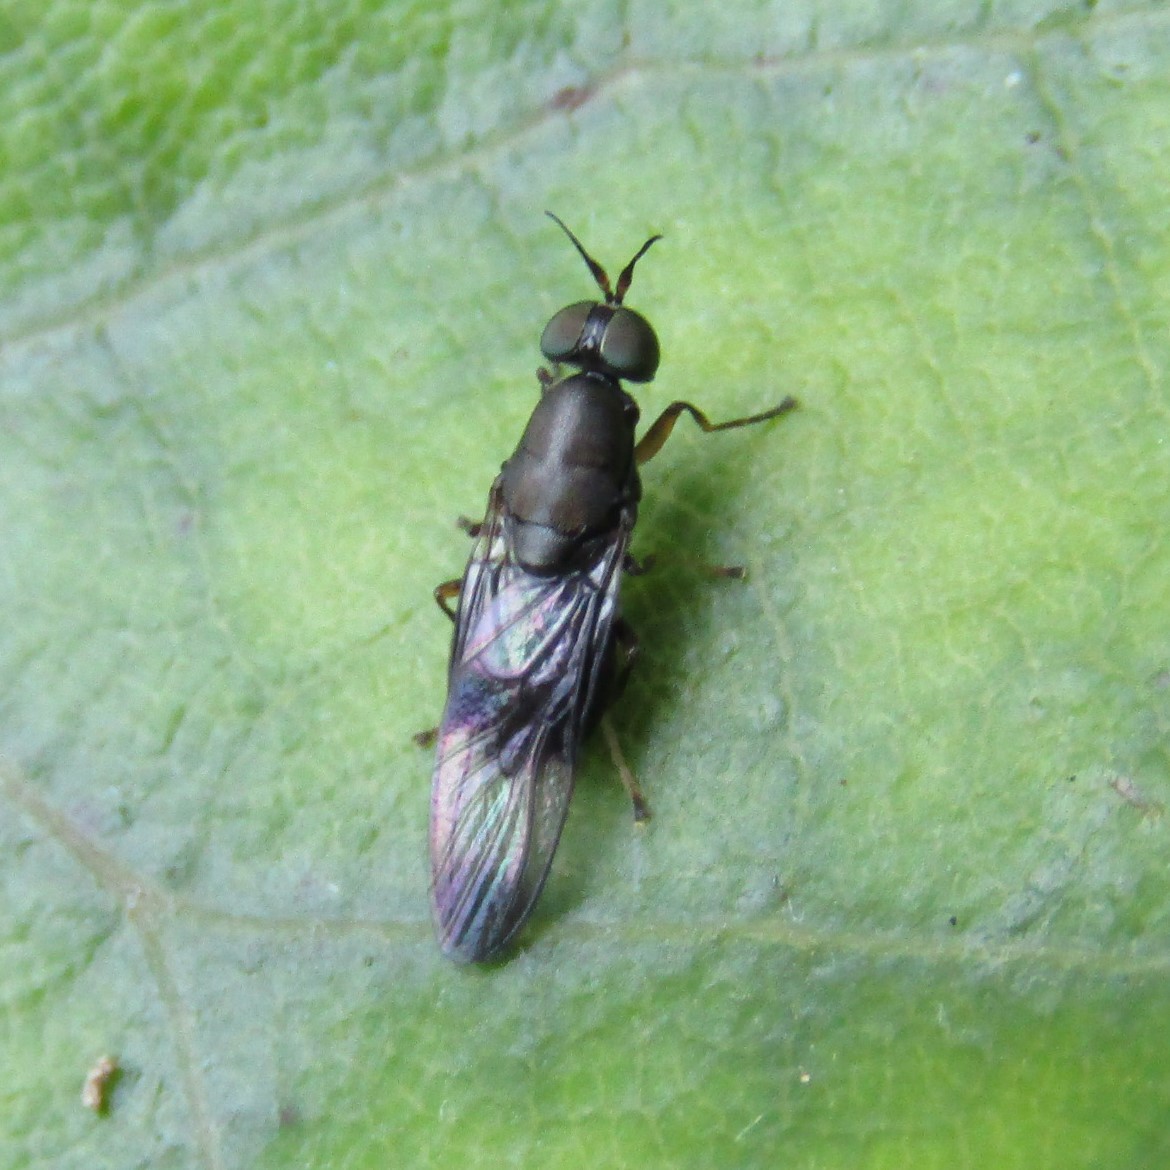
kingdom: Animalia
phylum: Arthropoda
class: Insecta
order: Diptera
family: Stratiomyidae
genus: Dysbiota
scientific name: Dysbiota peregrina
